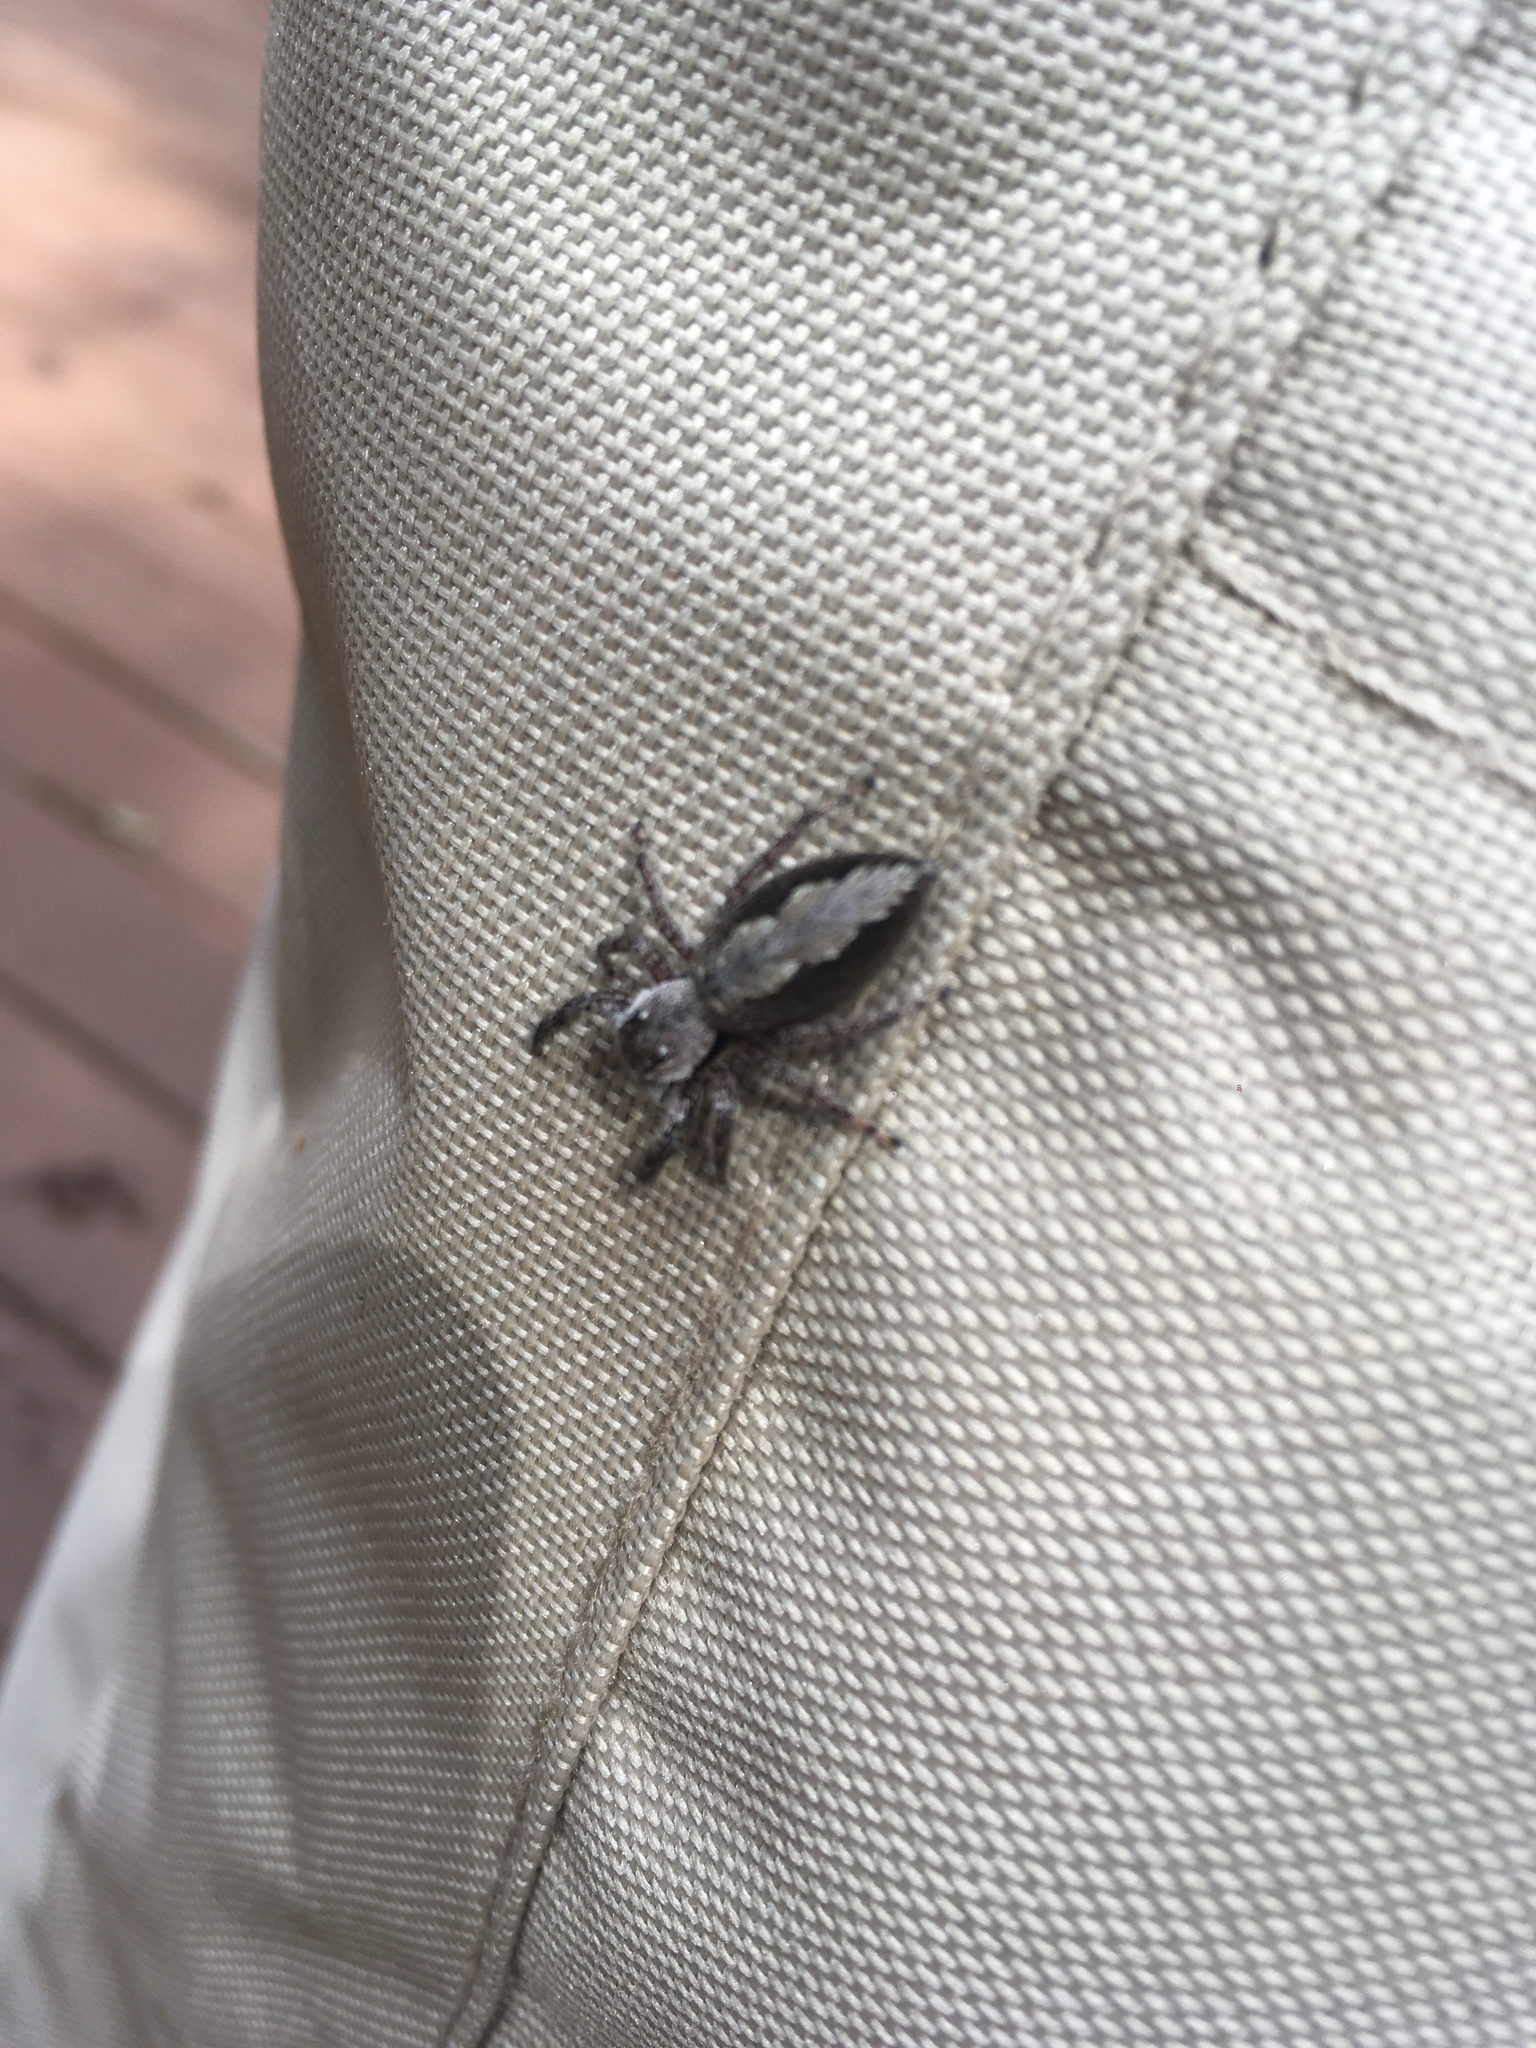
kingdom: Animalia
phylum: Arthropoda
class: Arachnida
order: Araneae
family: Salticidae
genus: Platycryptus
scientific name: Platycryptus undatus
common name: Tan jumping spider
